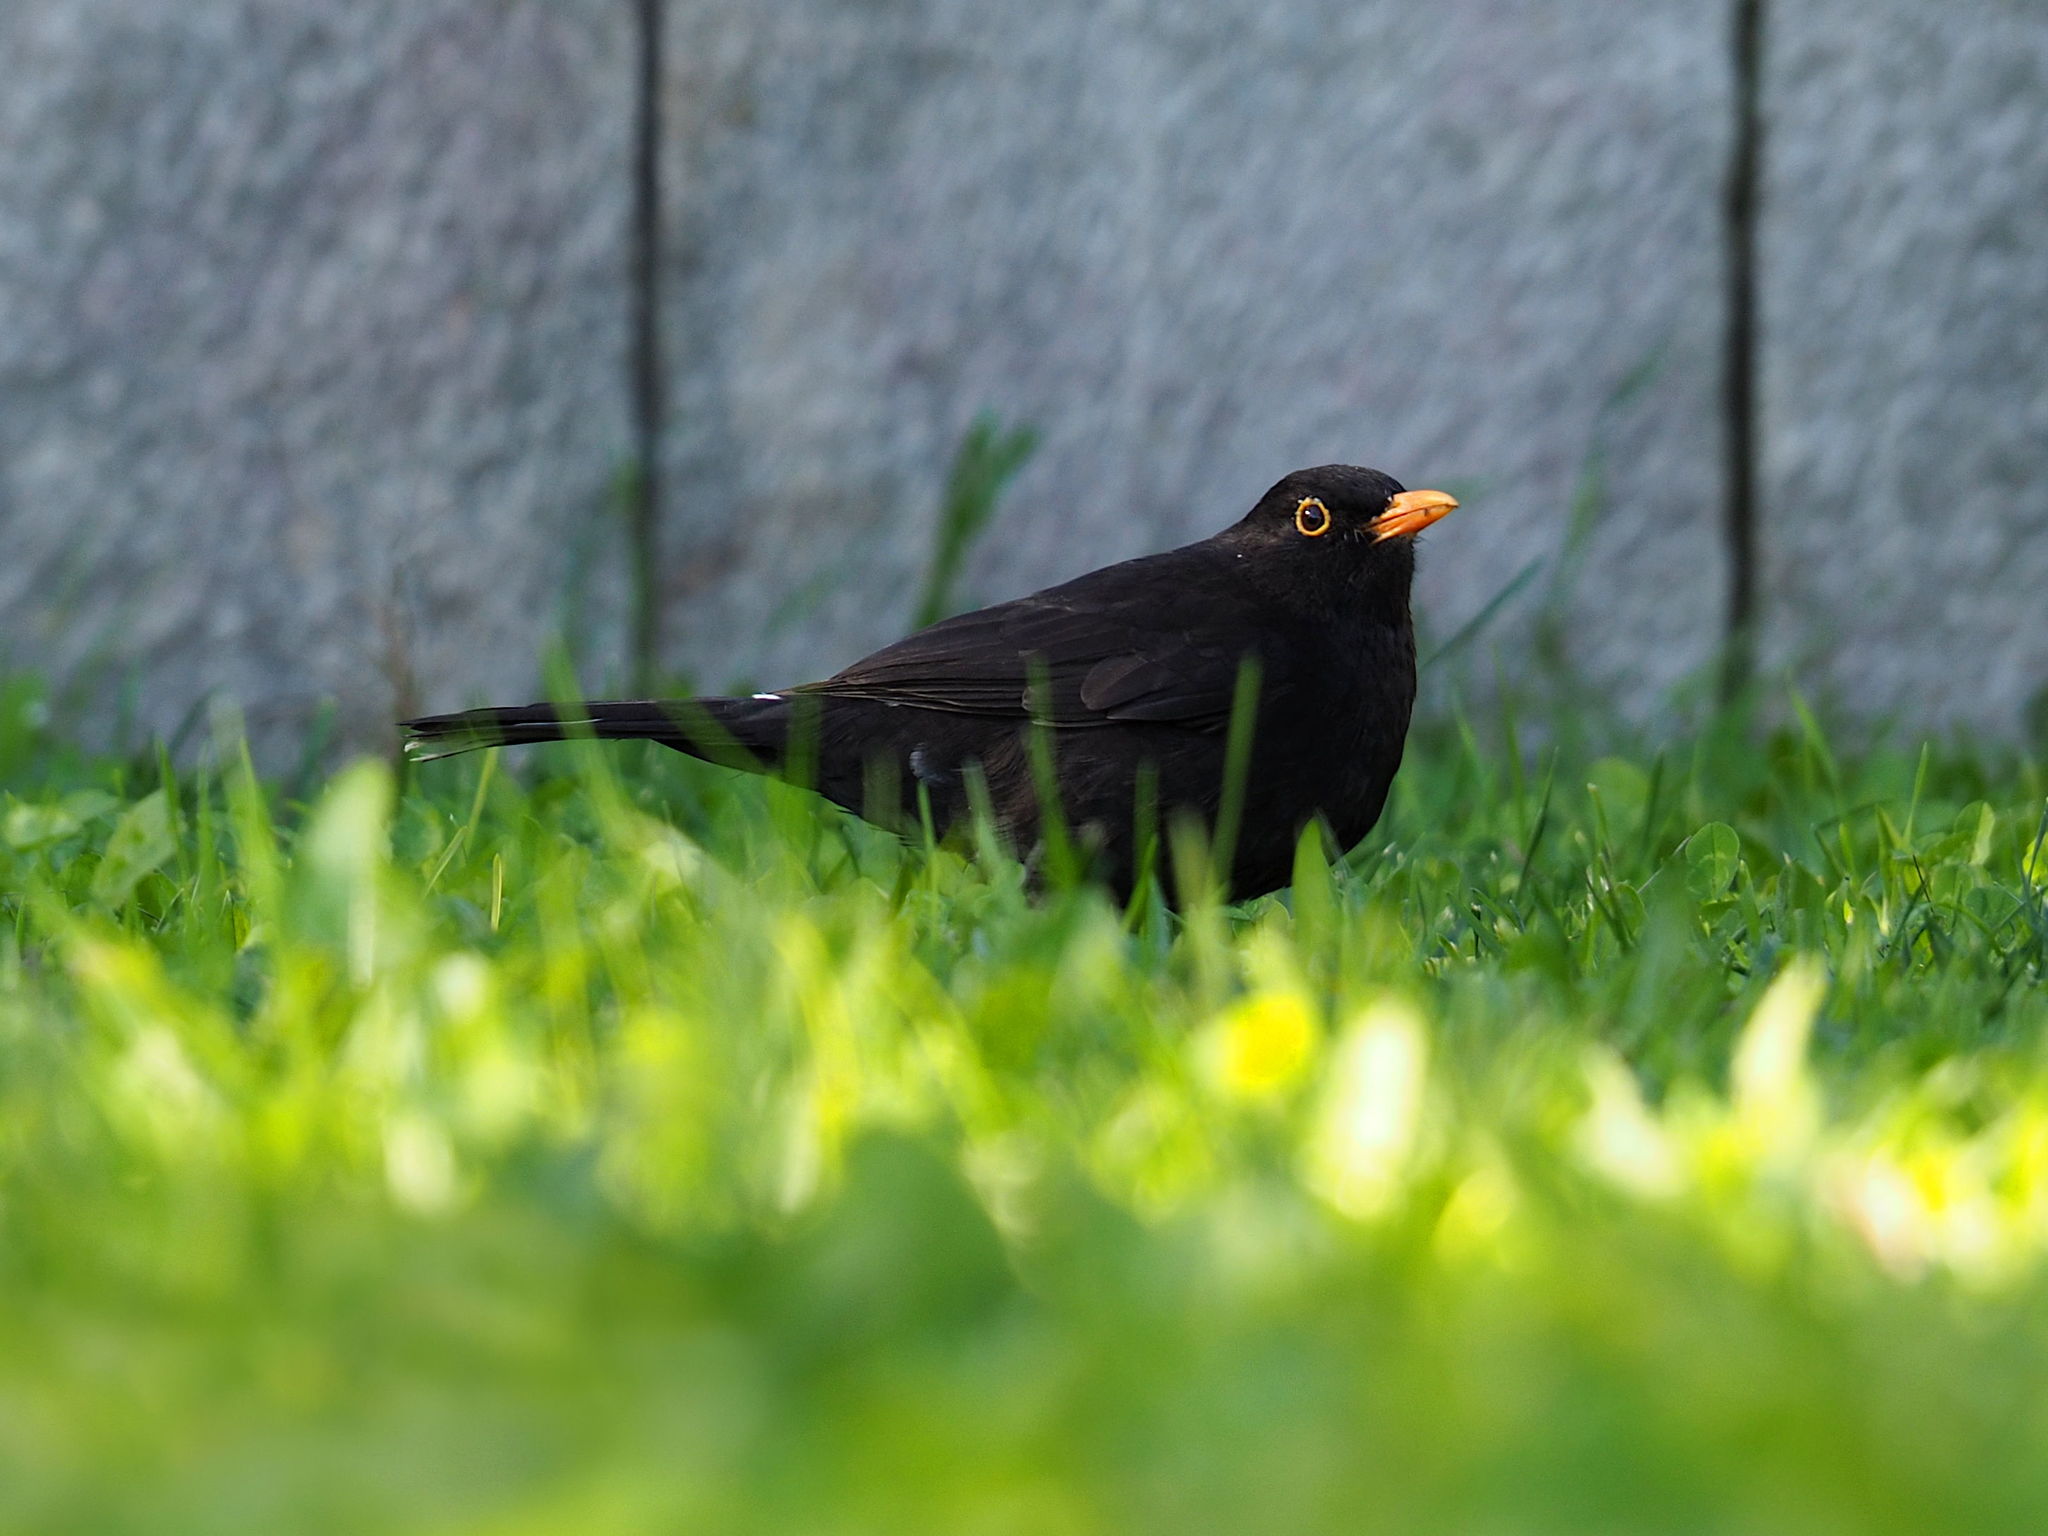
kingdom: Animalia
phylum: Chordata
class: Aves
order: Passeriformes
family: Turdidae
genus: Turdus
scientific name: Turdus merula
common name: Common blackbird
